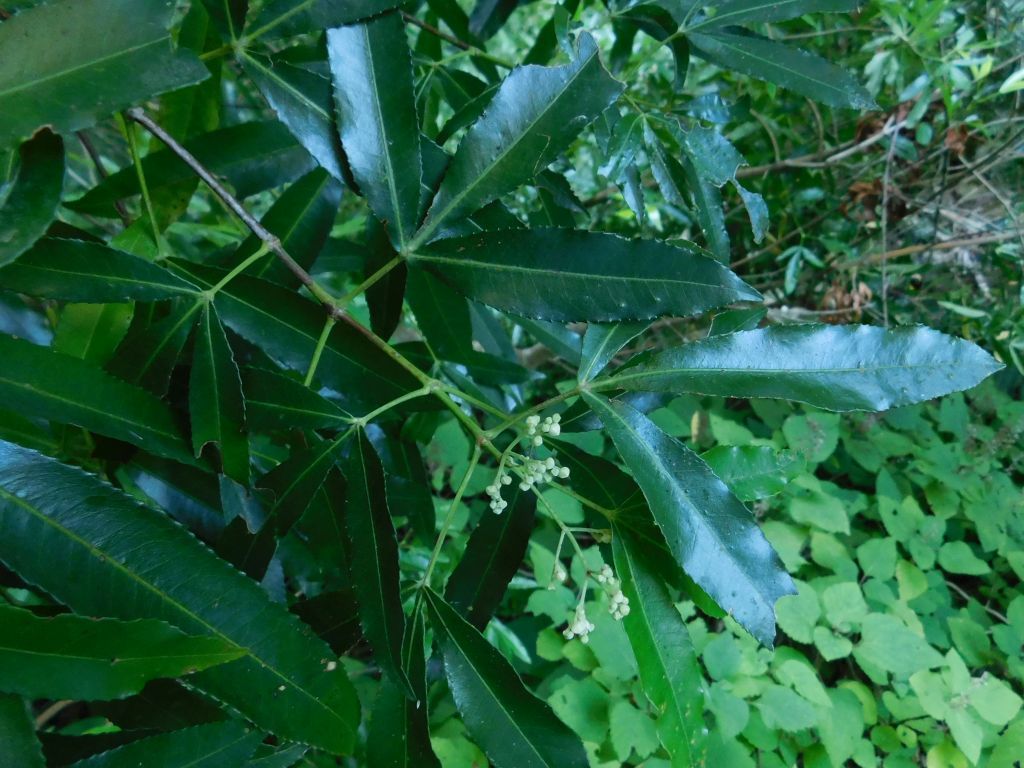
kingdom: Plantae
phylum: Tracheophyta
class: Magnoliopsida
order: Oxalidales
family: Cunoniaceae
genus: Platylophus
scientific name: Platylophus trifoliatus
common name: White alder
